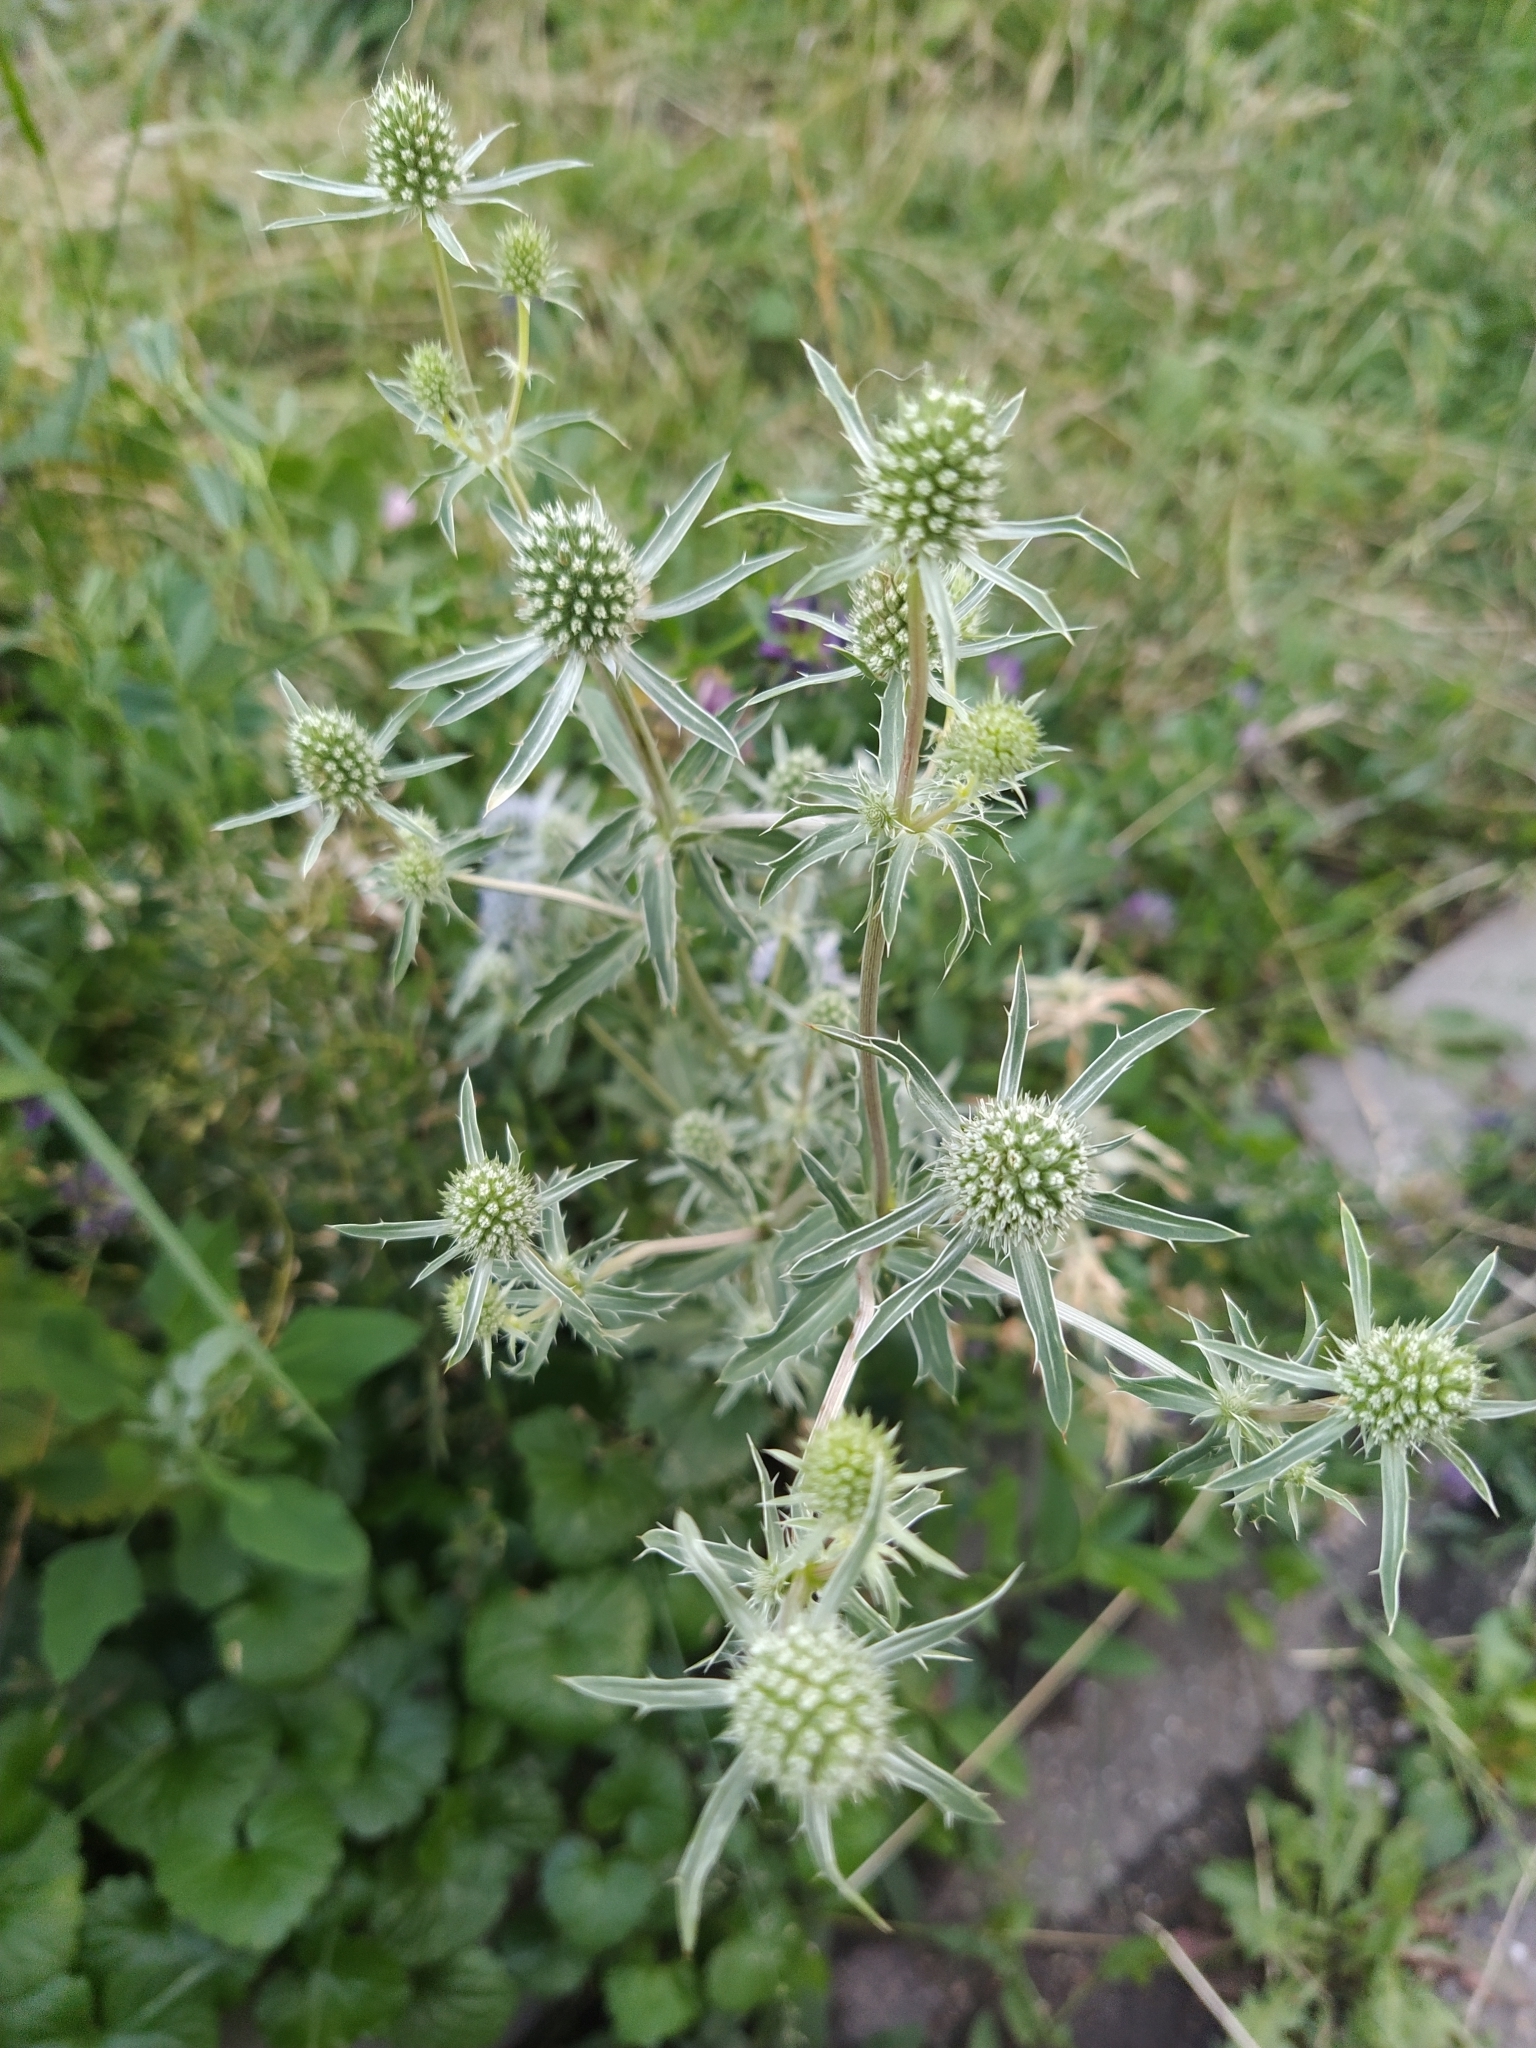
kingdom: Plantae
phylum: Tracheophyta
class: Magnoliopsida
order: Apiales
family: Apiaceae
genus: Eryngium
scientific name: Eryngium planum
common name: Blue eryngo
